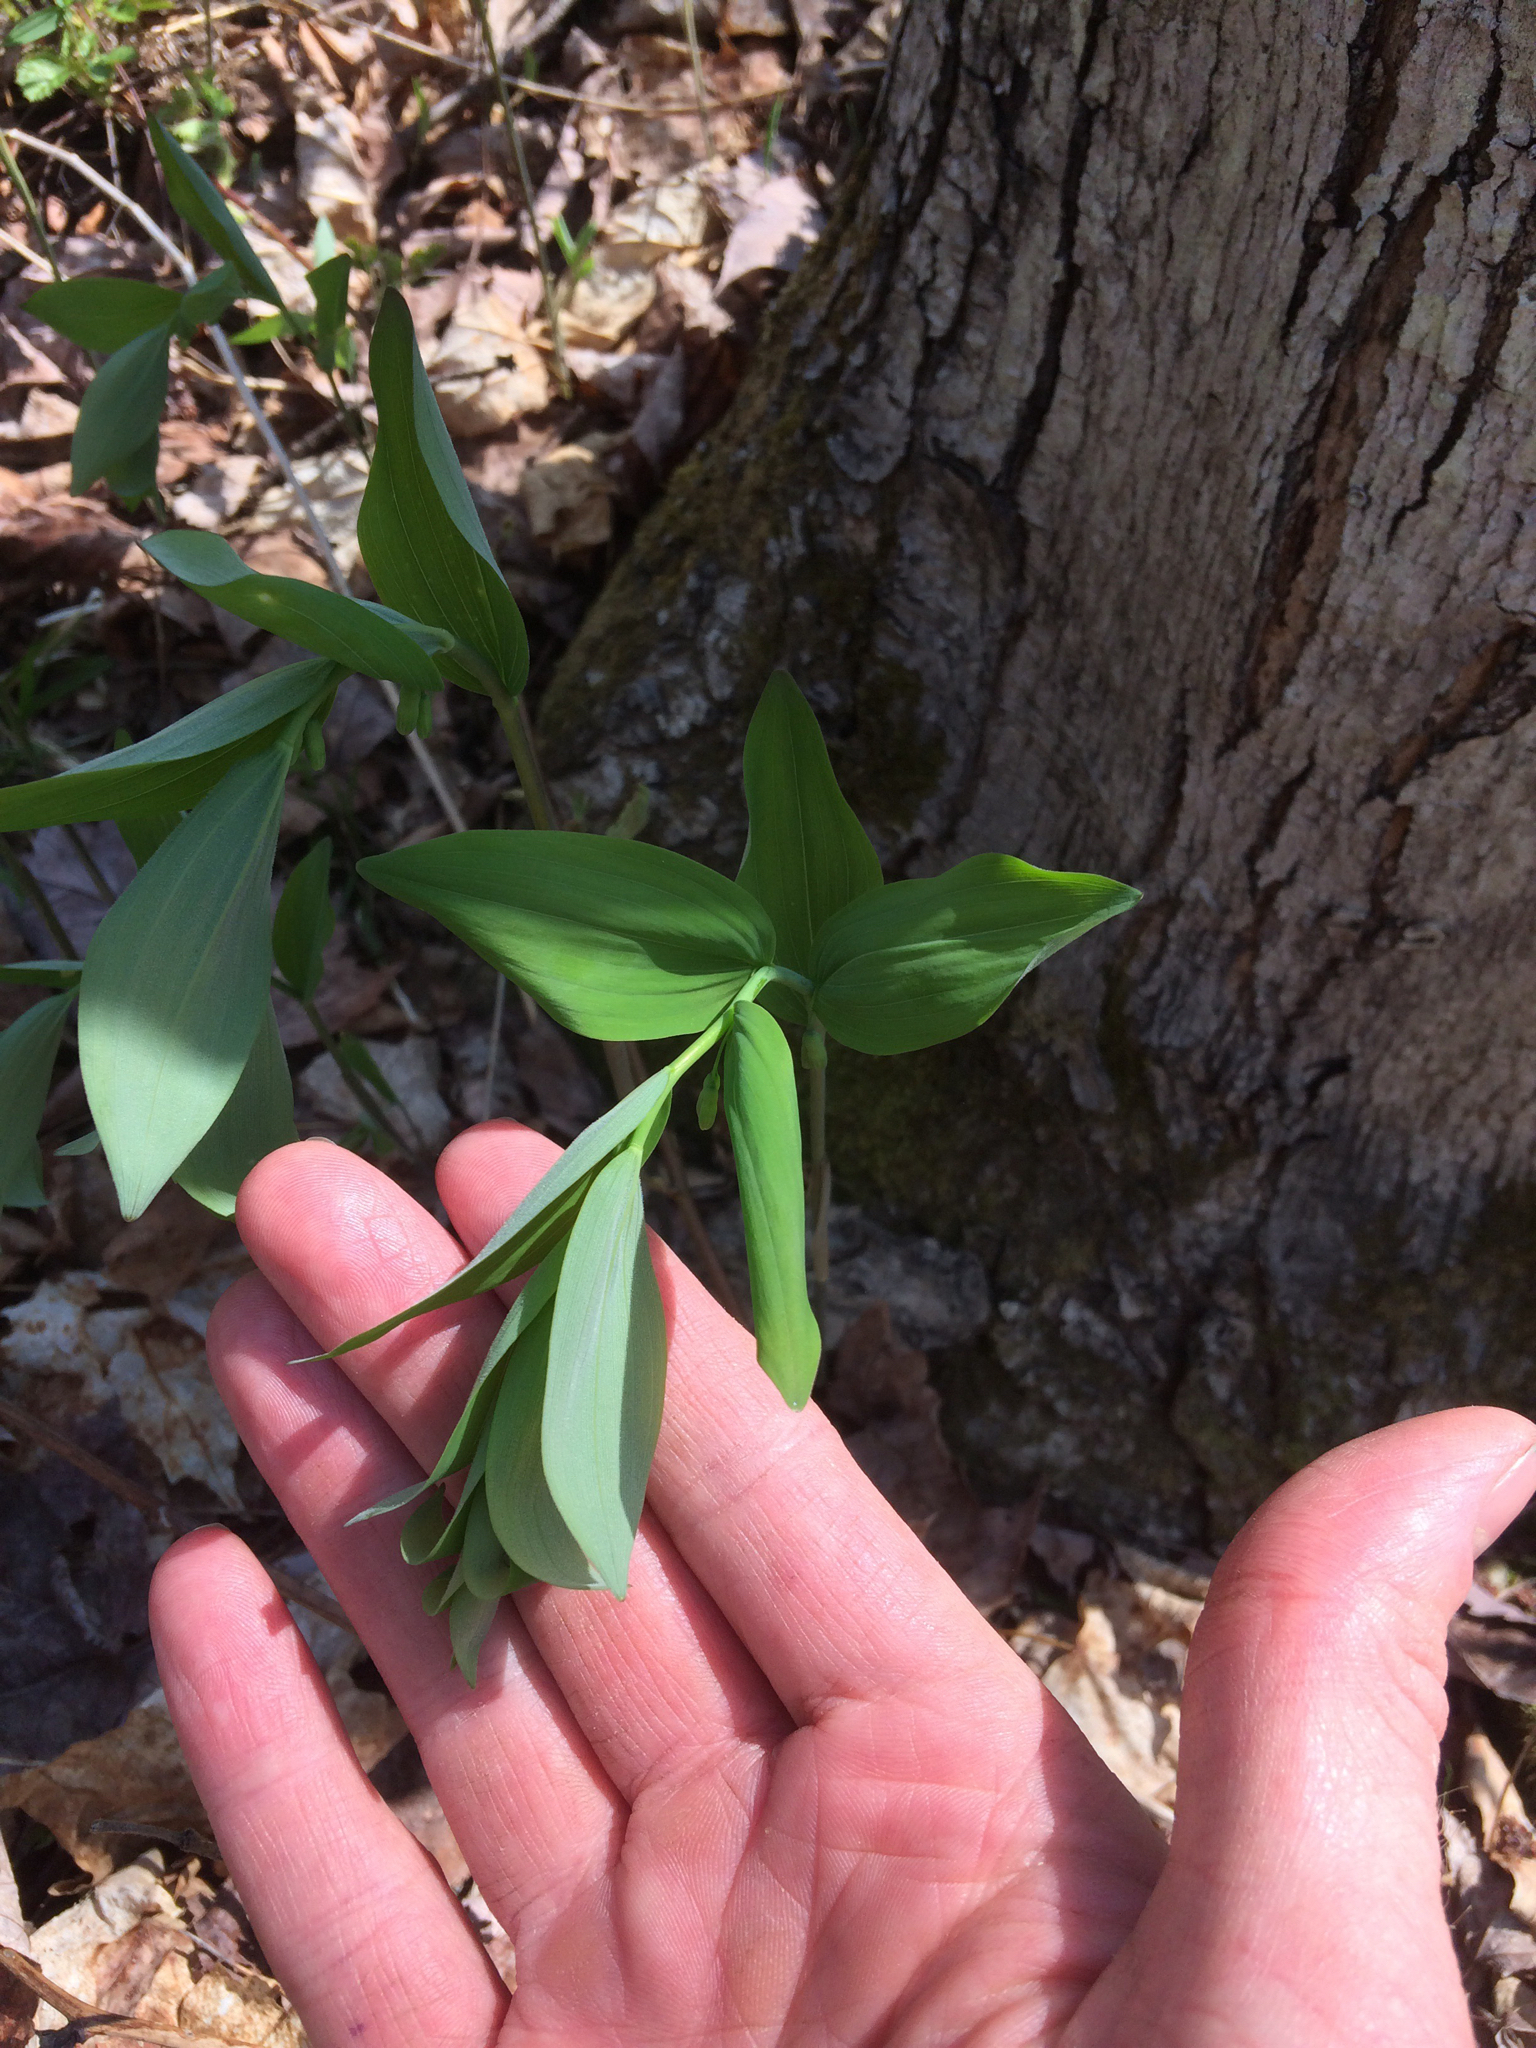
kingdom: Plantae
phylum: Tracheophyta
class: Liliopsida
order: Asparagales
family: Asparagaceae
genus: Polygonatum
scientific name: Polygonatum pubescens
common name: Downy solomon's seal
